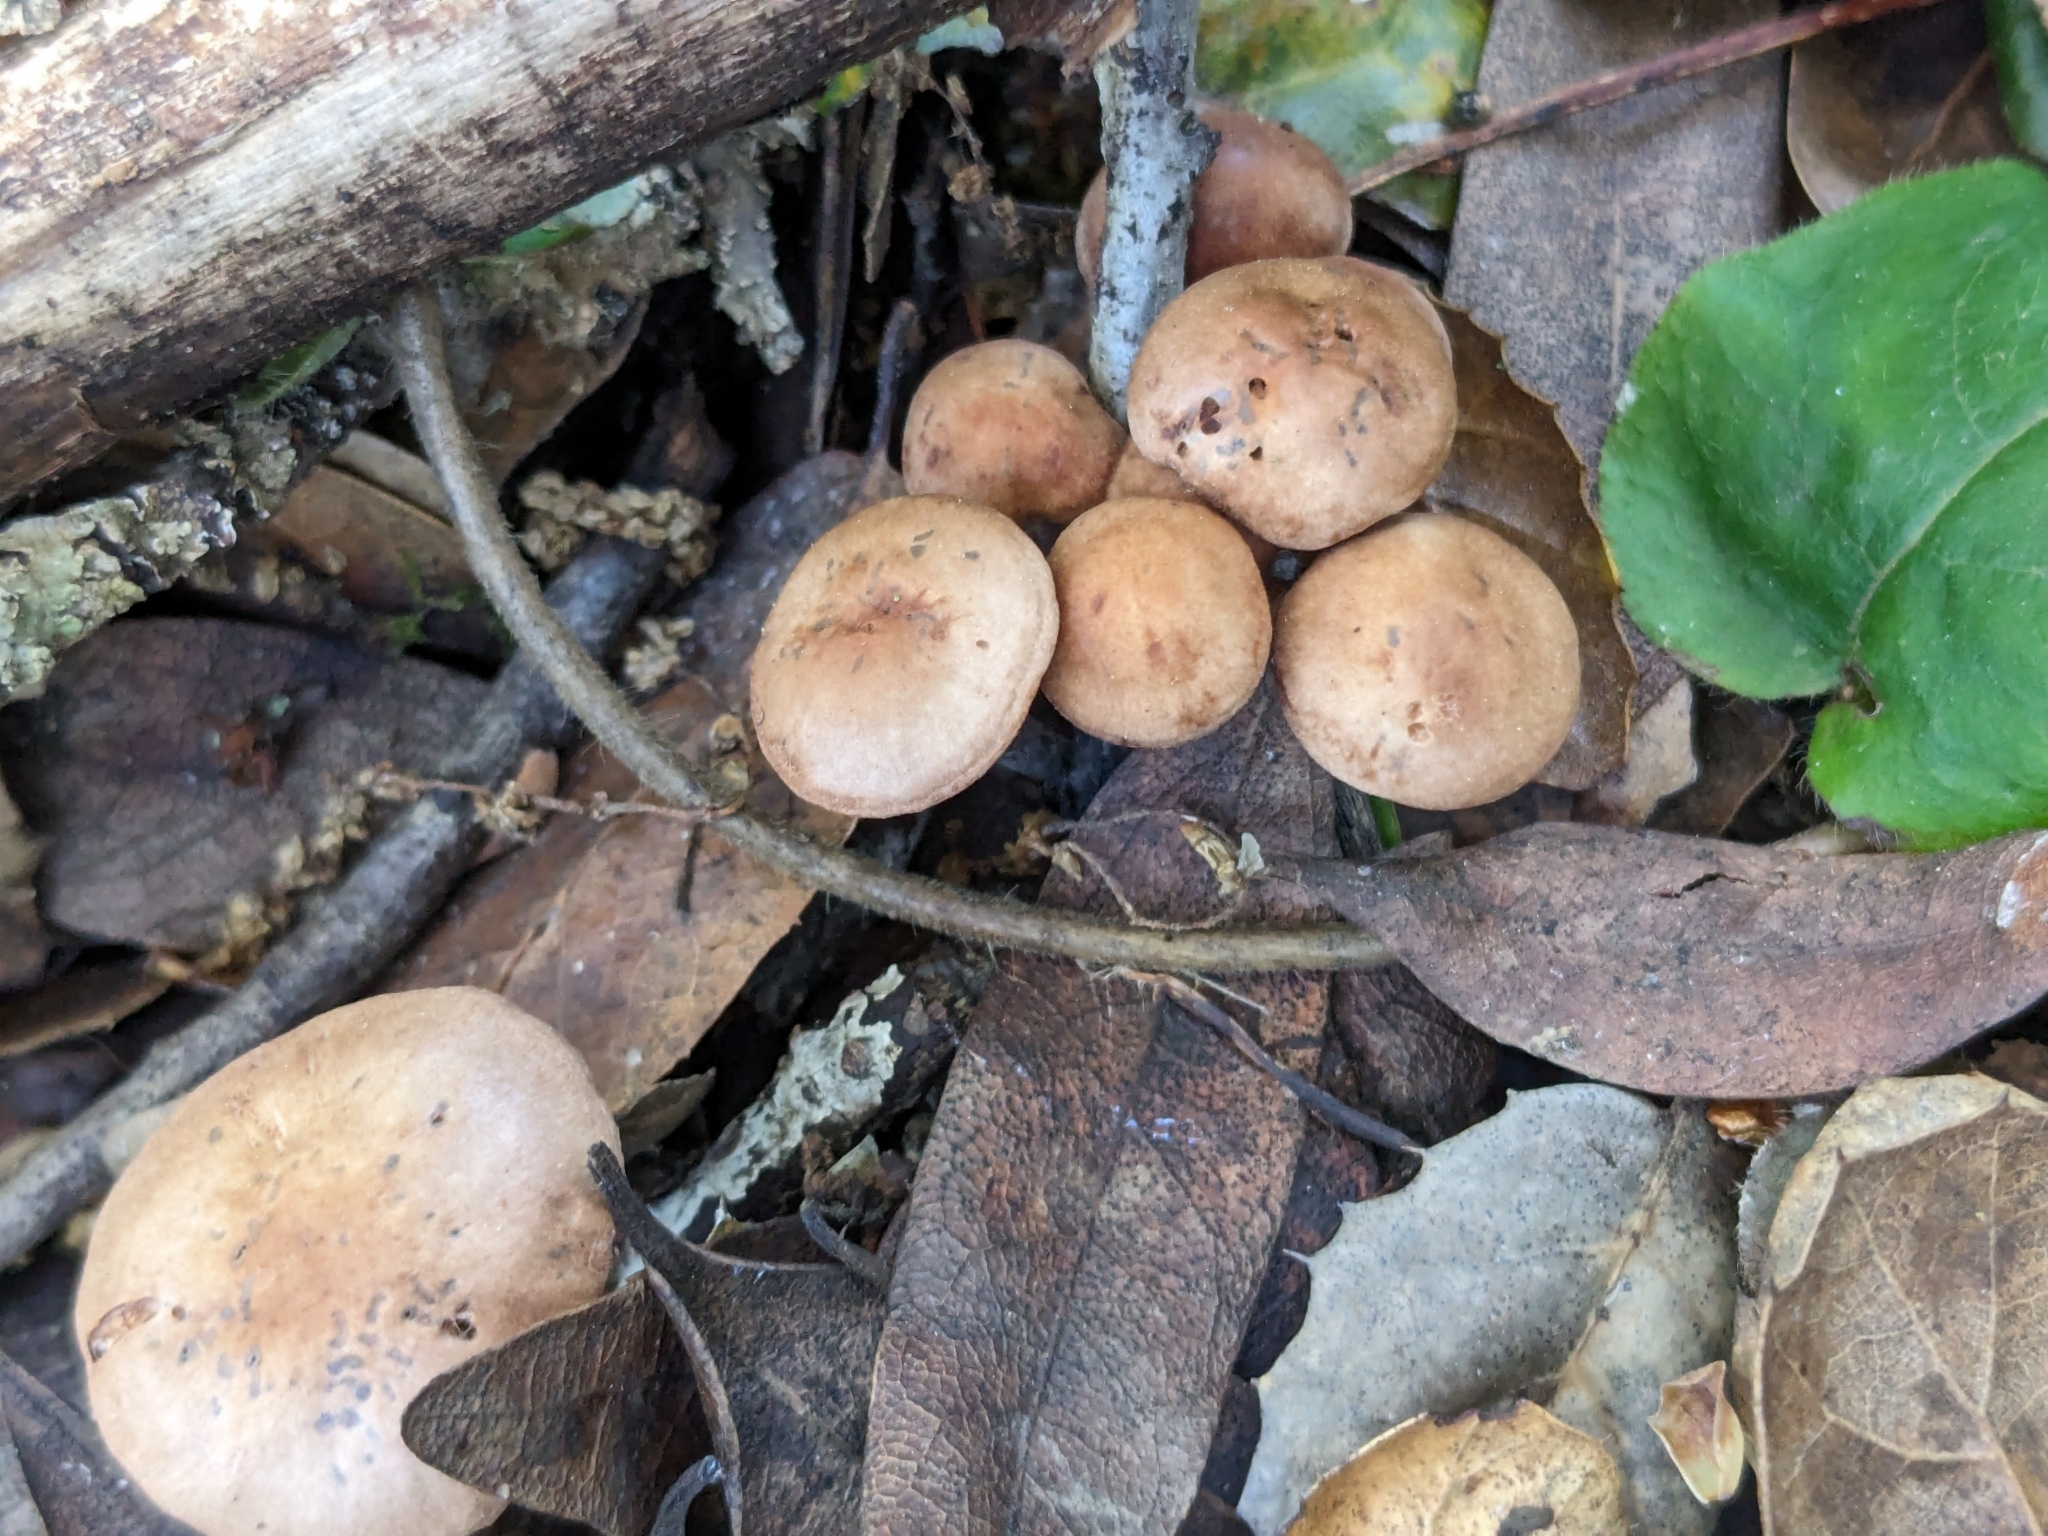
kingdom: Fungi
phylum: Basidiomycota
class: Agaricomycetes
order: Agaricales
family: Omphalotaceae
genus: Gymnopus
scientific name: Gymnopus brassicolens
